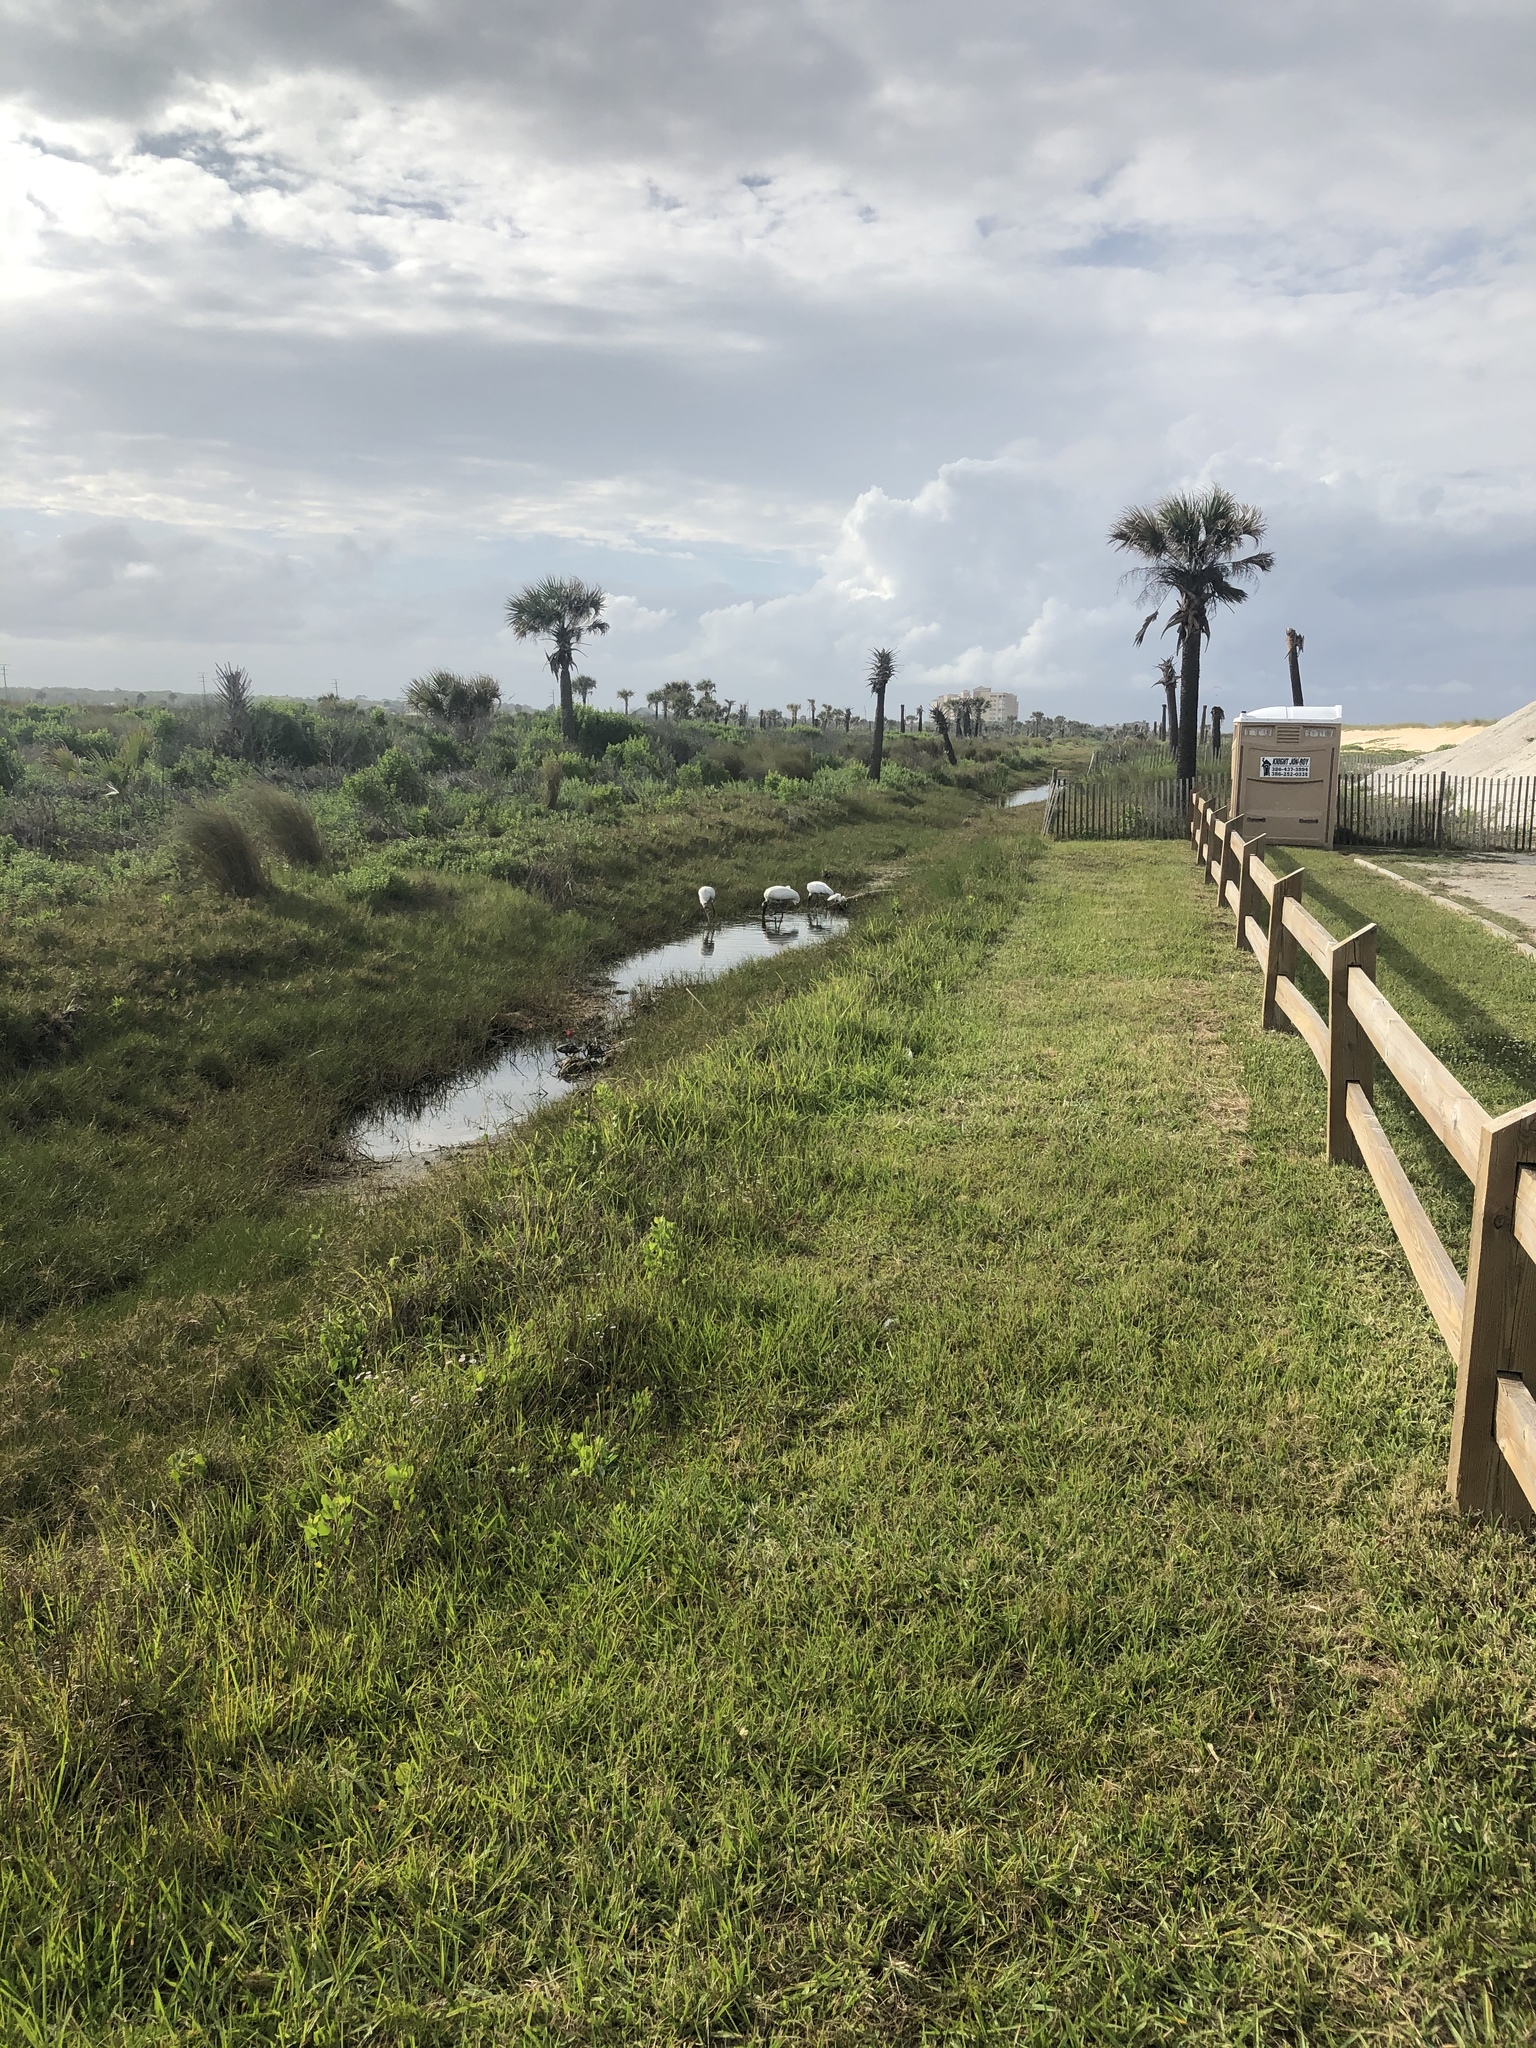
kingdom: Animalia
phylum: Chordata
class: Aves
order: Ciconiiformes
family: Ciconiidae
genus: Mycteria
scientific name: Mycteria americana
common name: Wood stork
